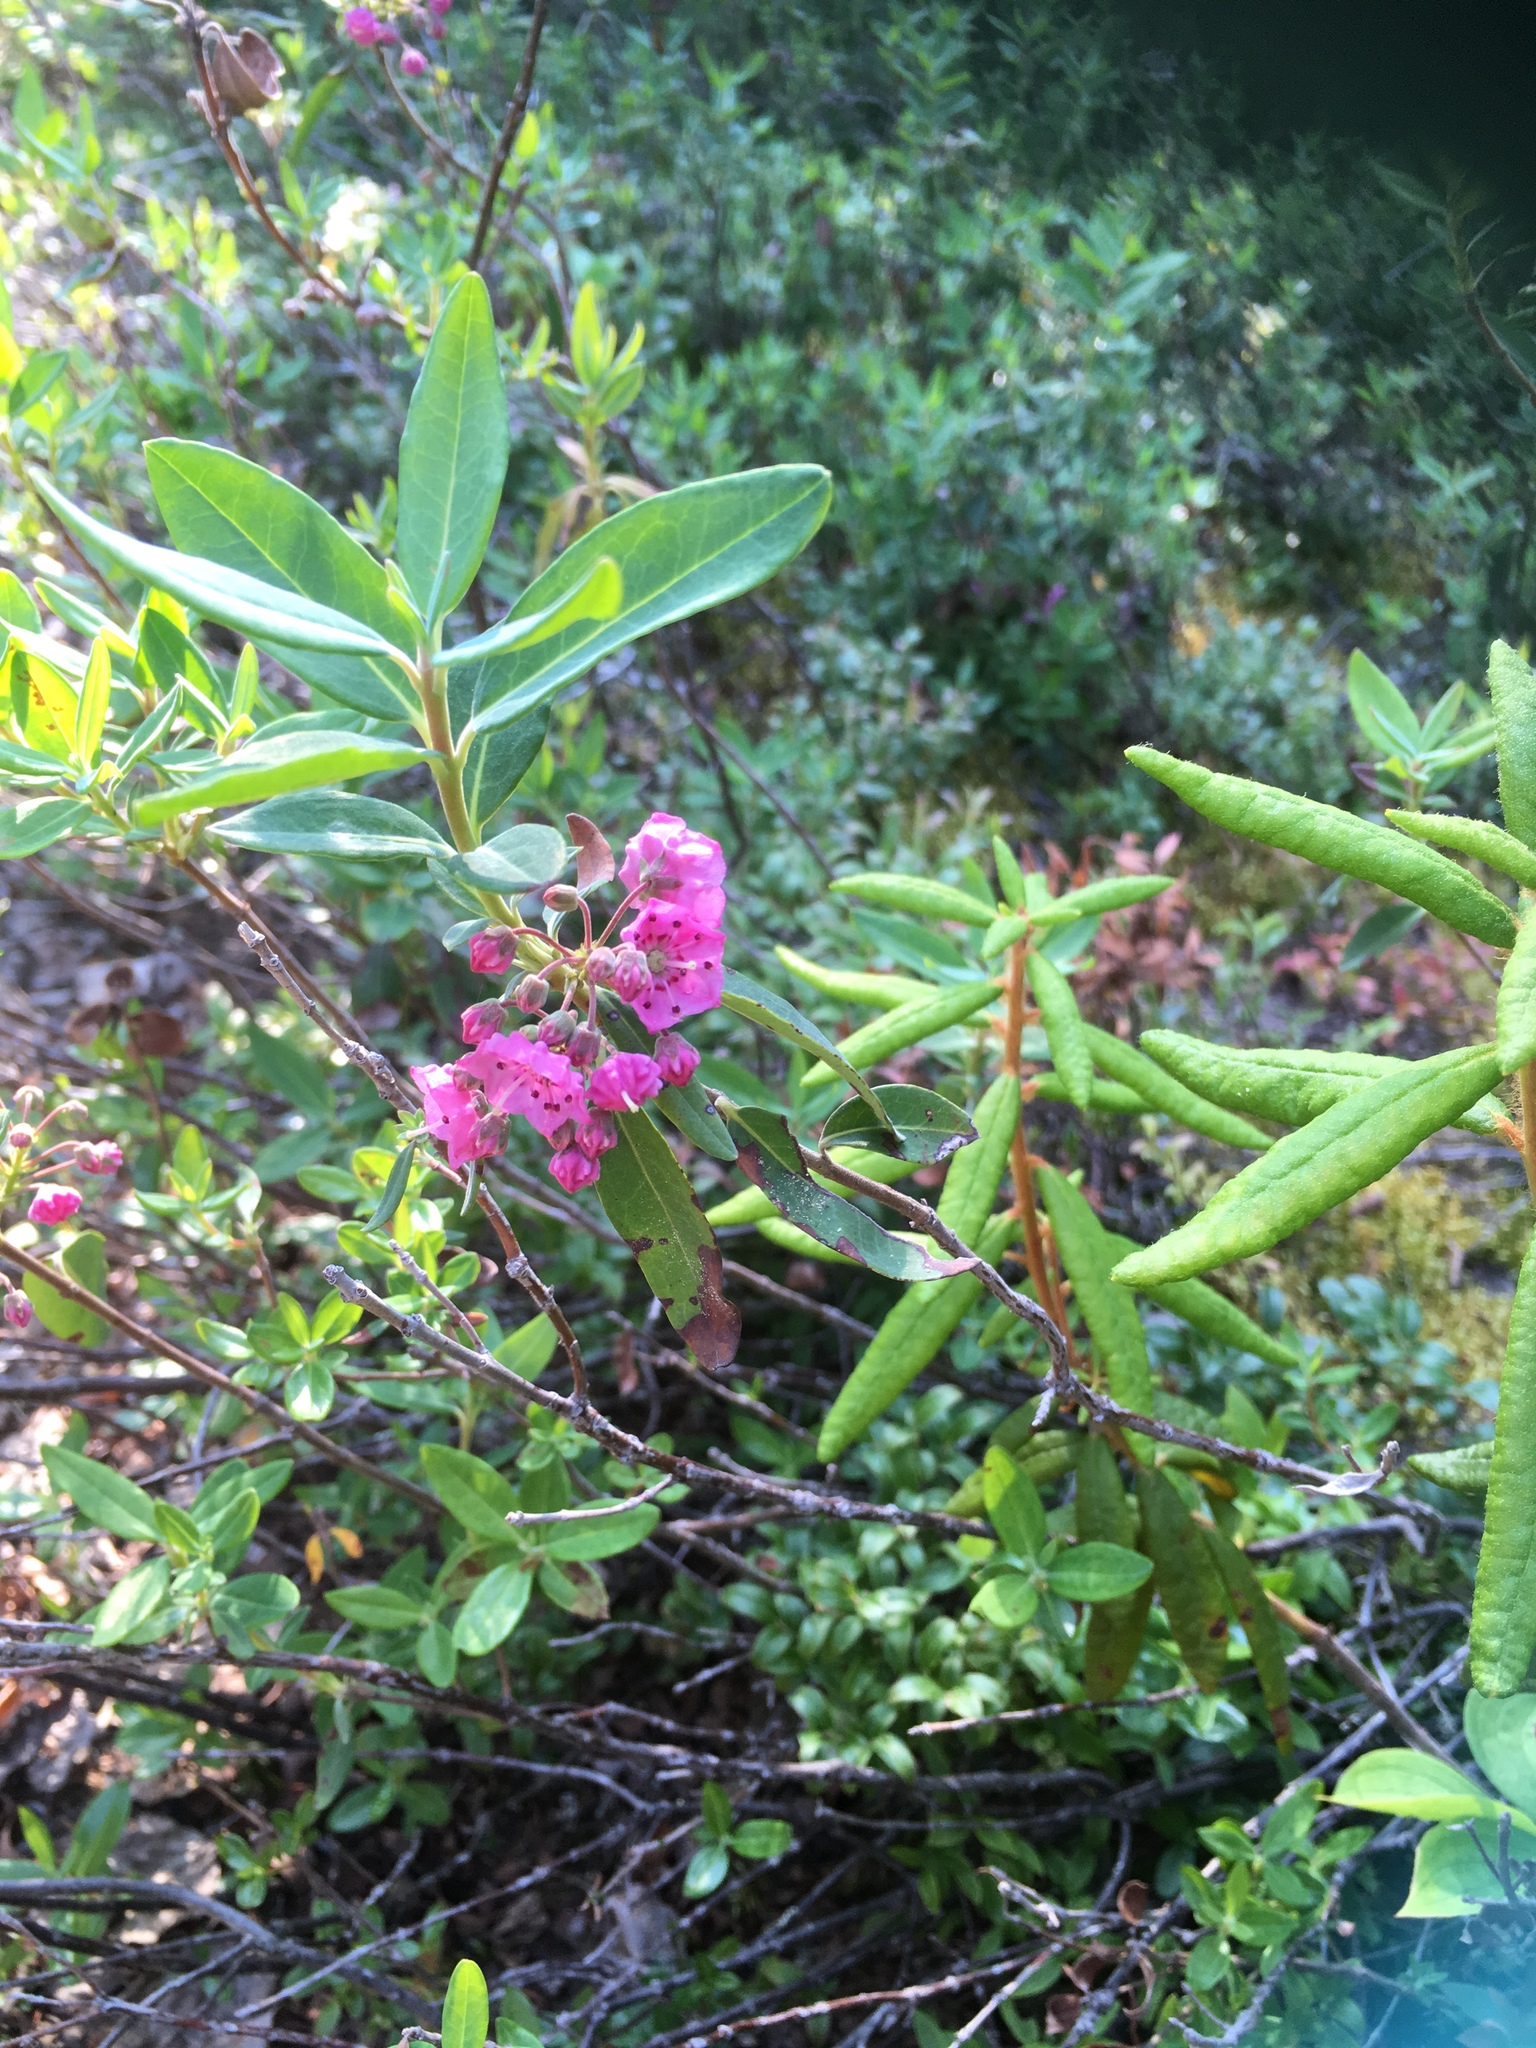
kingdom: Plantae
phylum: Tracheophyta
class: Magnoliopsida
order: Ericales
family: Ericaceae
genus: Kalmia
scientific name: Kalmia angustifolia
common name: Sheep-laurel
